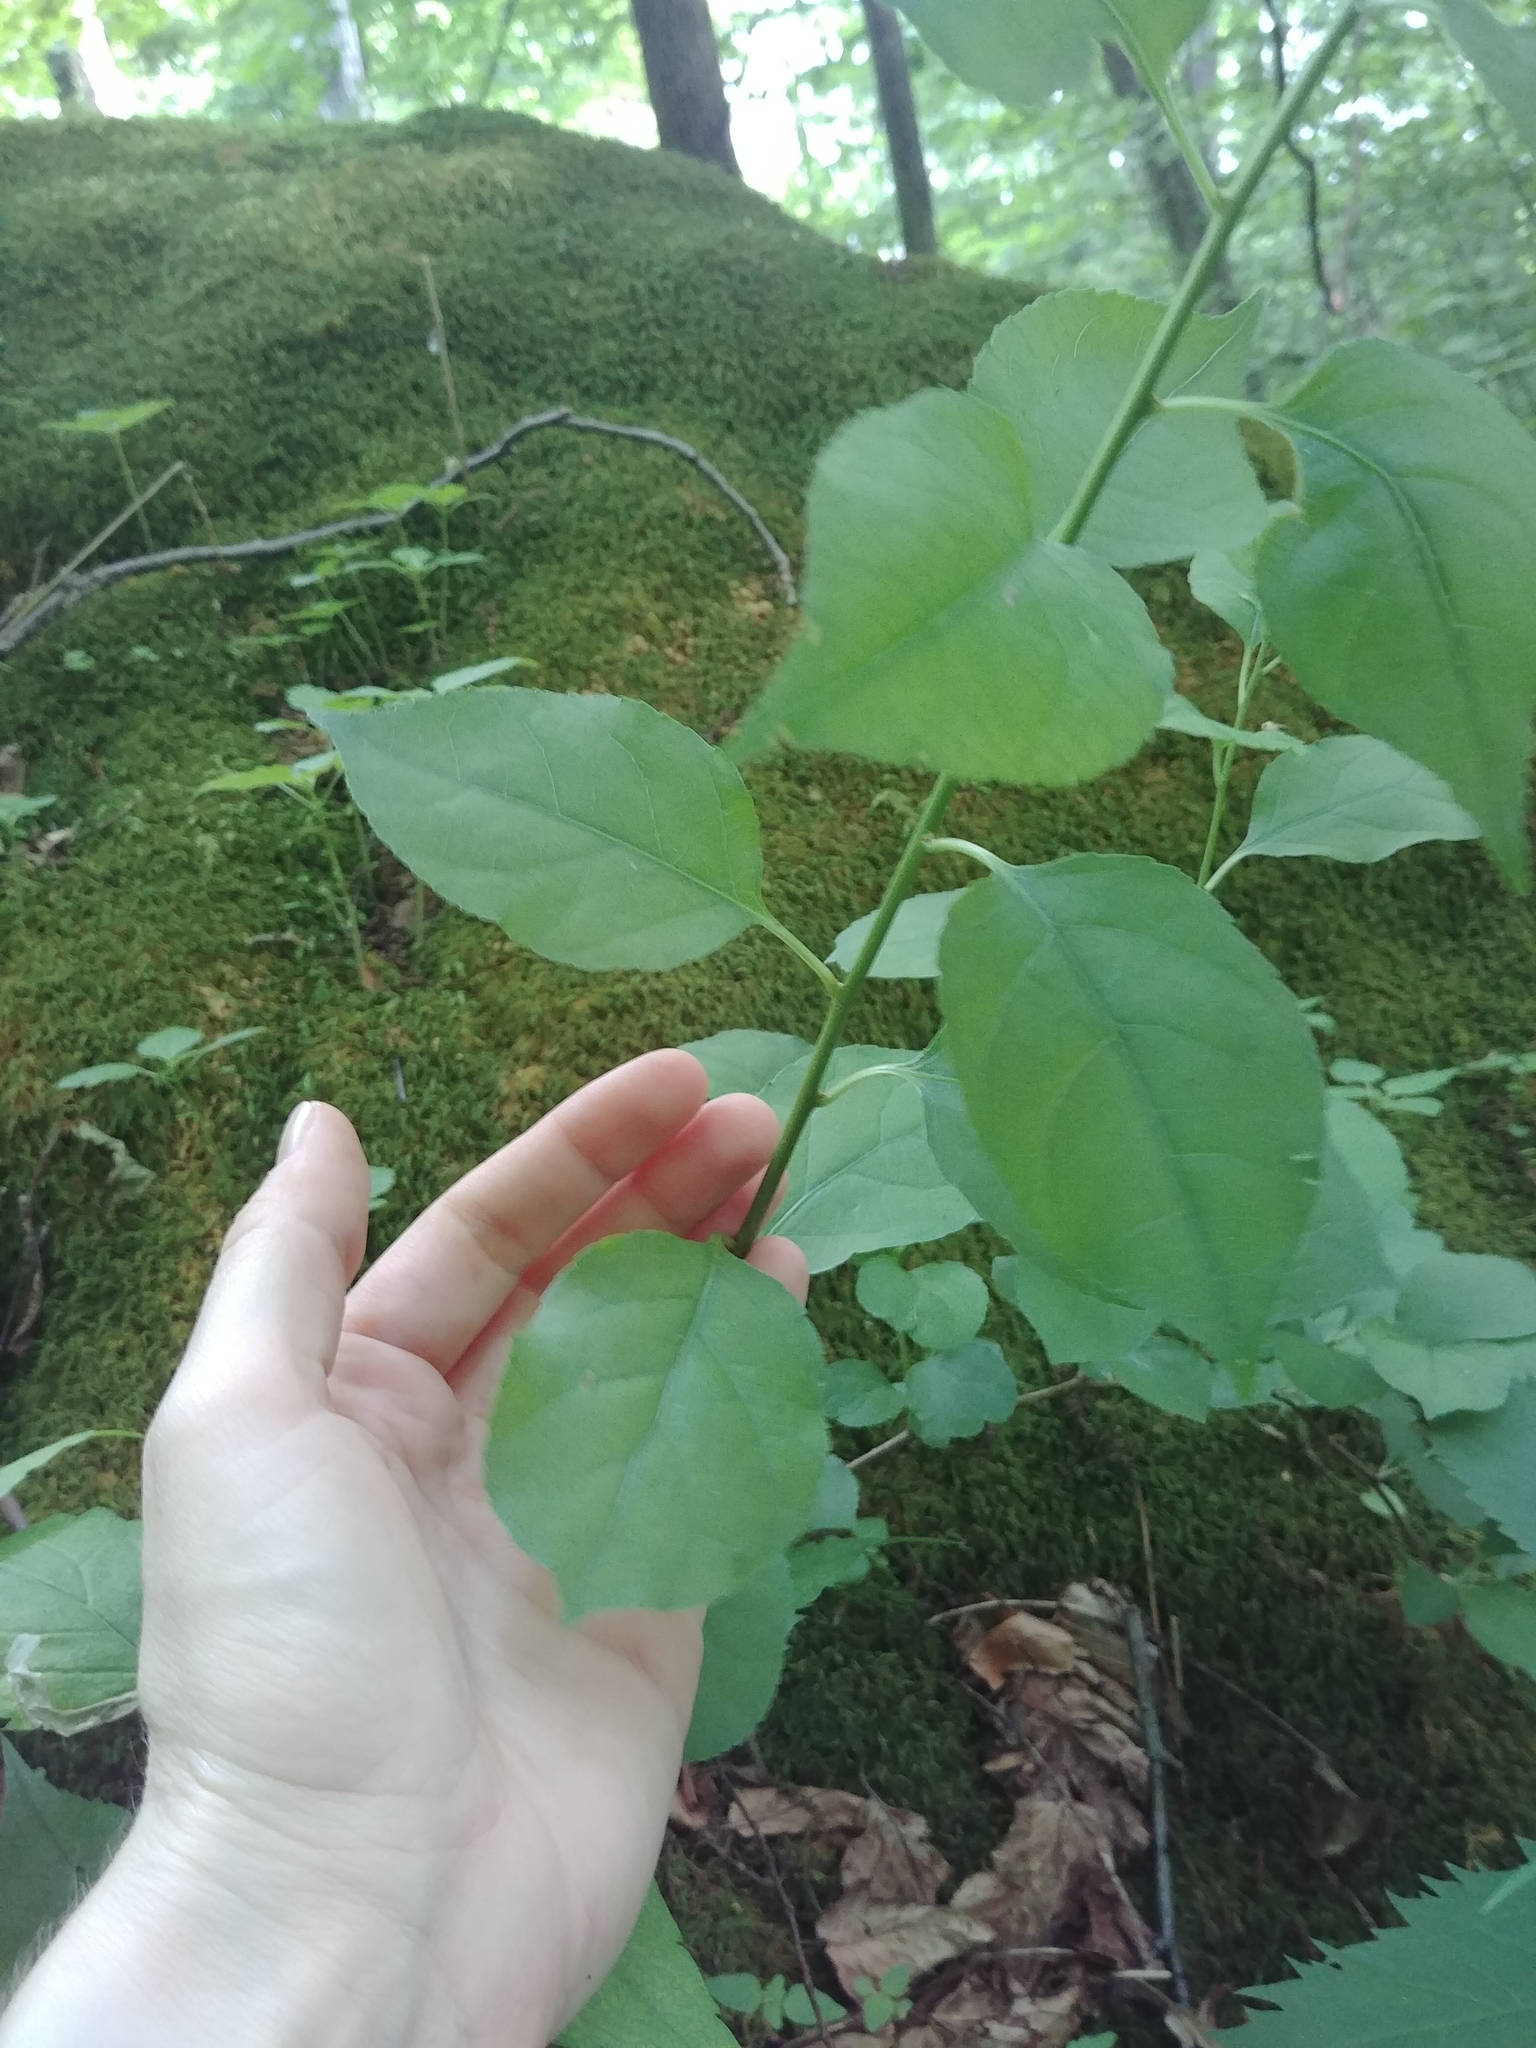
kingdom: Plantae
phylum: Tracheophyta
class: Magnoliopsida
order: Celastrales
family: Celastraceae
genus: Celastrus
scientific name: Celastrus orbiculatus
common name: Oriental bittersweet
